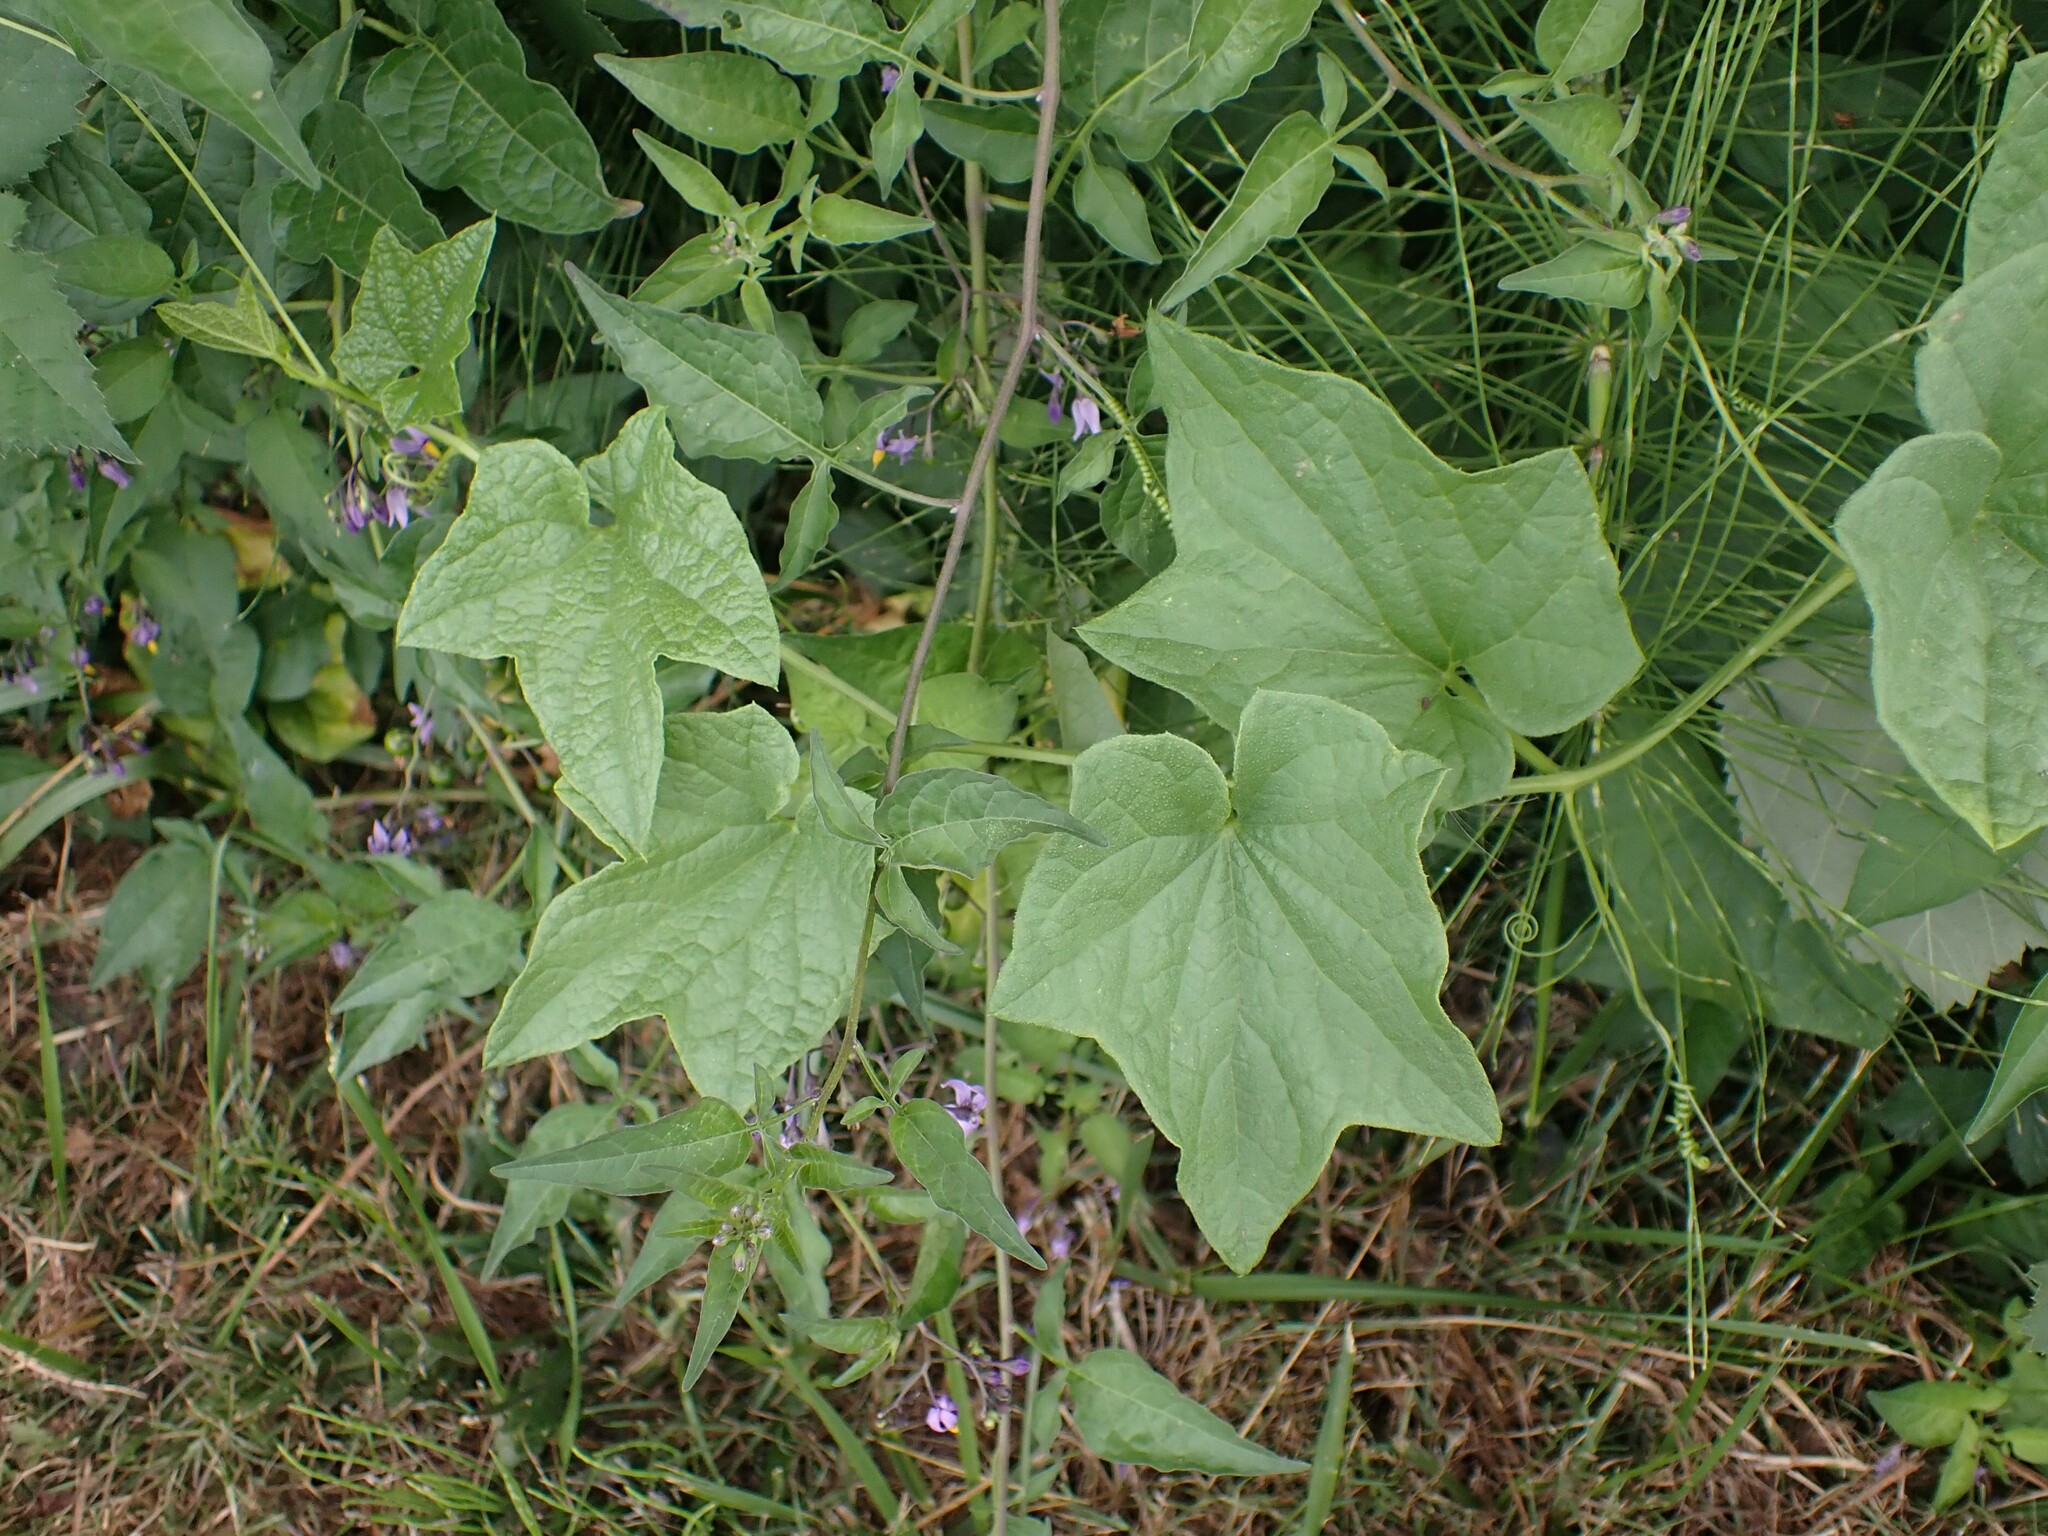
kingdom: Plantae
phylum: Tracheophyta
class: Magnoliopsida
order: Cucurbitales
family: Cucurbitaceae
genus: Marah
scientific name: Marah oregana
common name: Coastal manroot
